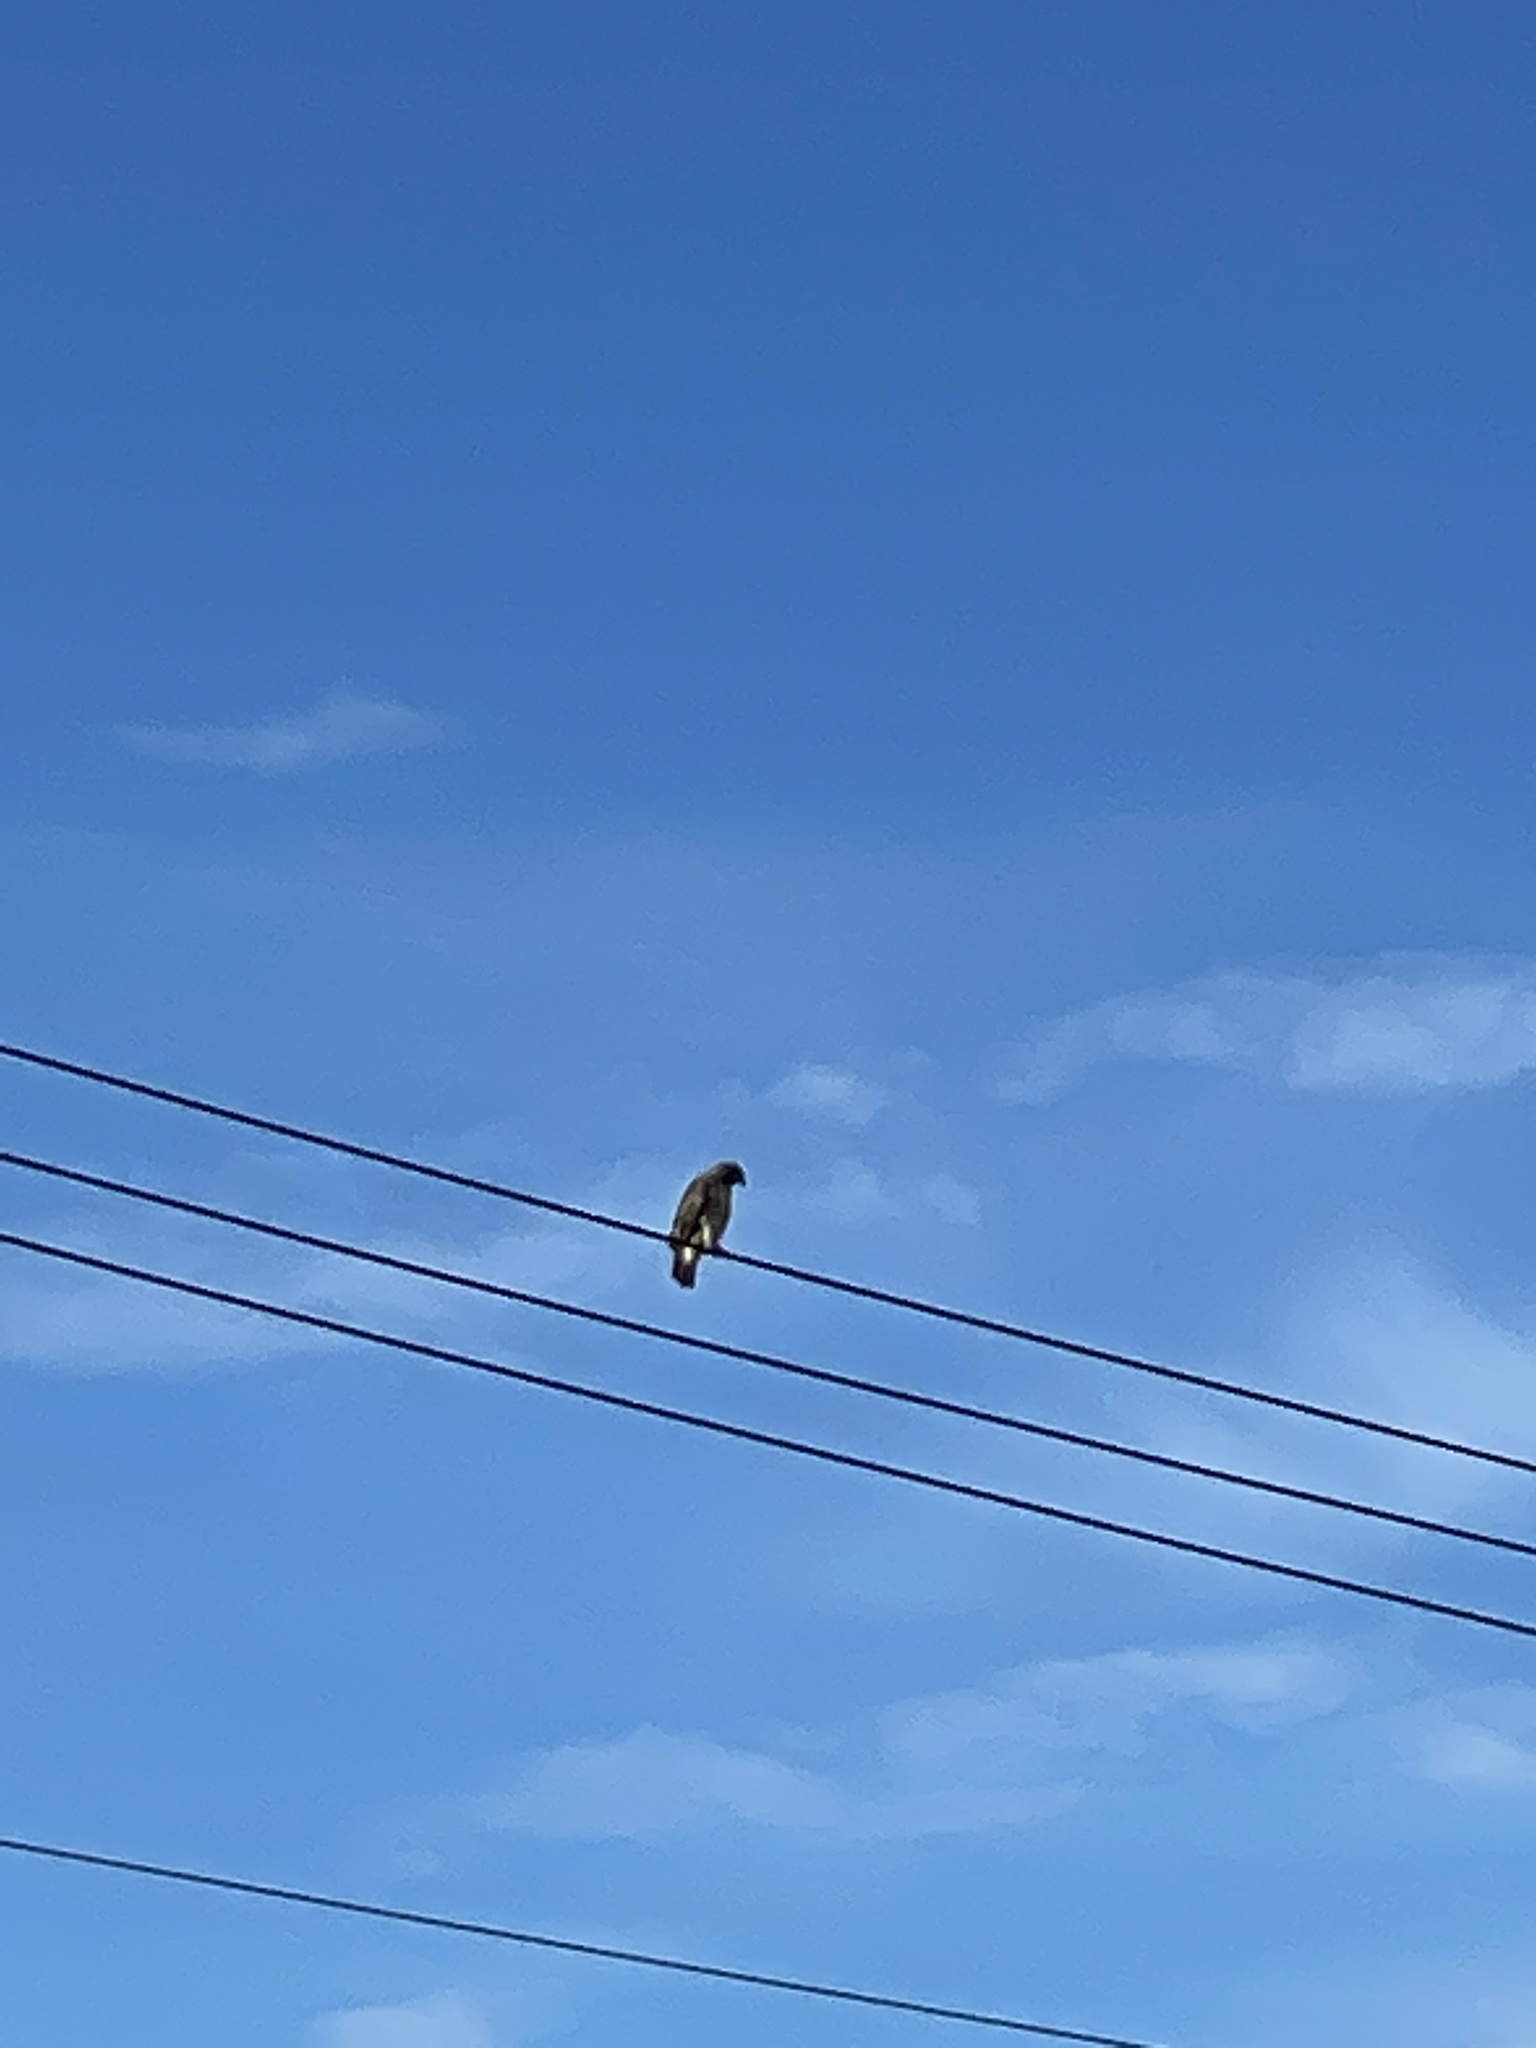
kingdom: Animalia
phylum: Chordata
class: Aves
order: Accipitriformes
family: Accipitridae
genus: Buteo
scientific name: Buteo jamaicensis
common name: Red-tailed hawk
